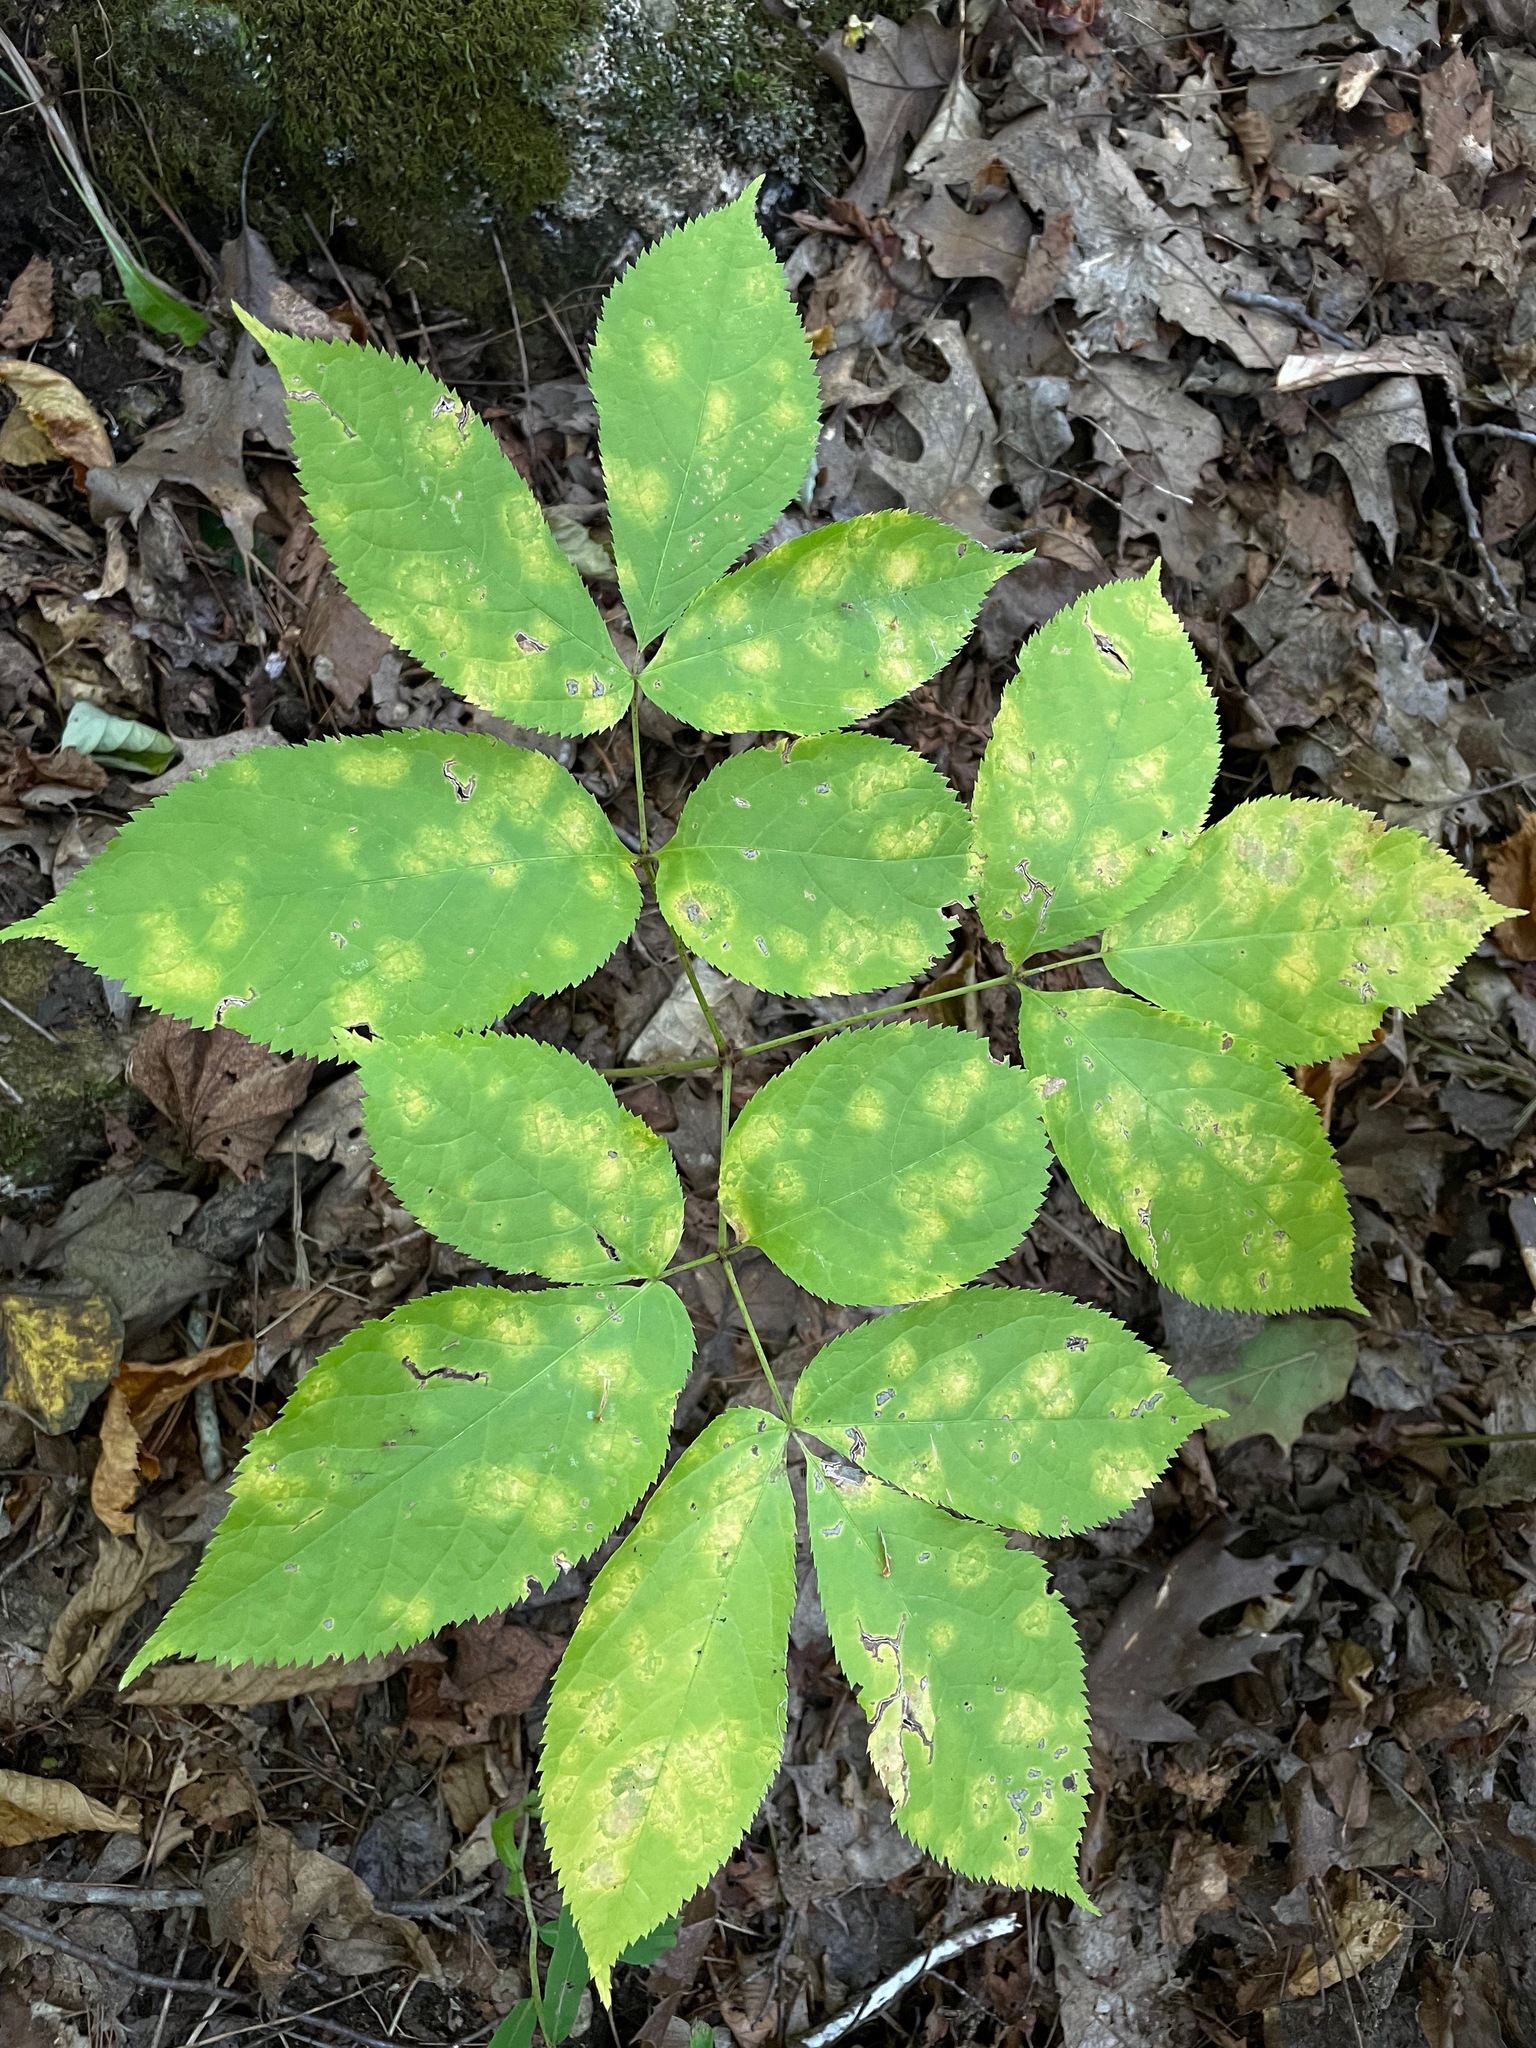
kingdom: Plantae
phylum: Tracheophyta
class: Magnoliopsida
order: Apiales
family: Araliaceae
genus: Aralia
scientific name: Aralia nudicaulis
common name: Wild sarsaparilla
